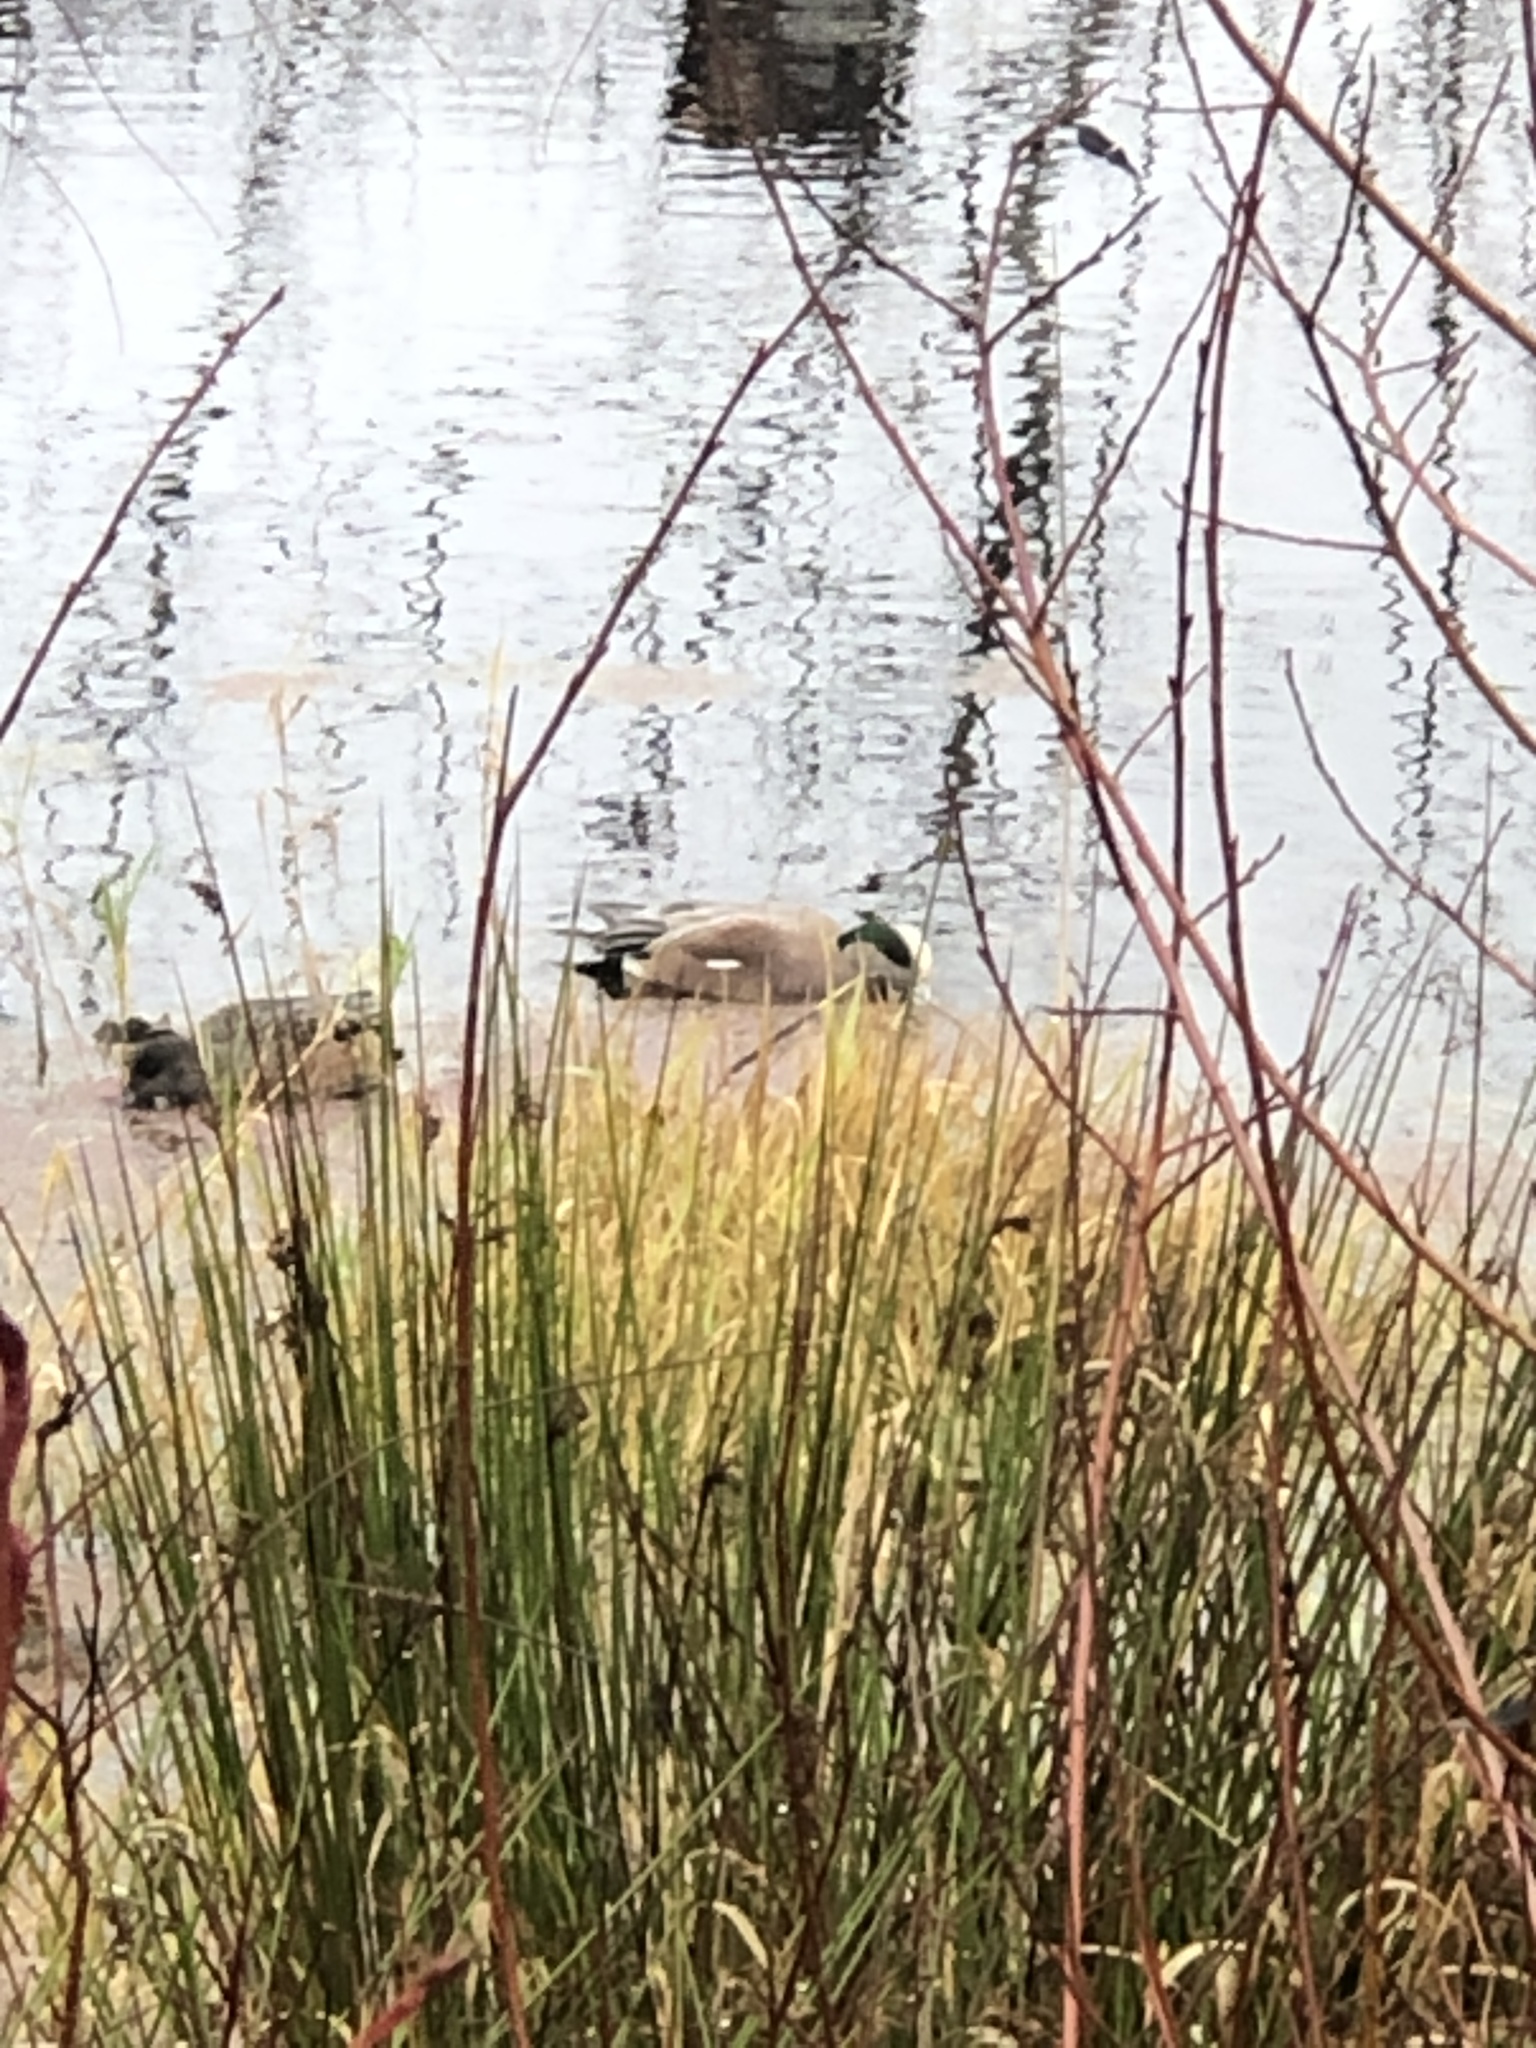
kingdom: Animalia
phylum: Chordata
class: Aves
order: Anseriformes
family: Anatidae
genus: Mareca
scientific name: Mareca americana
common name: American wigeon
